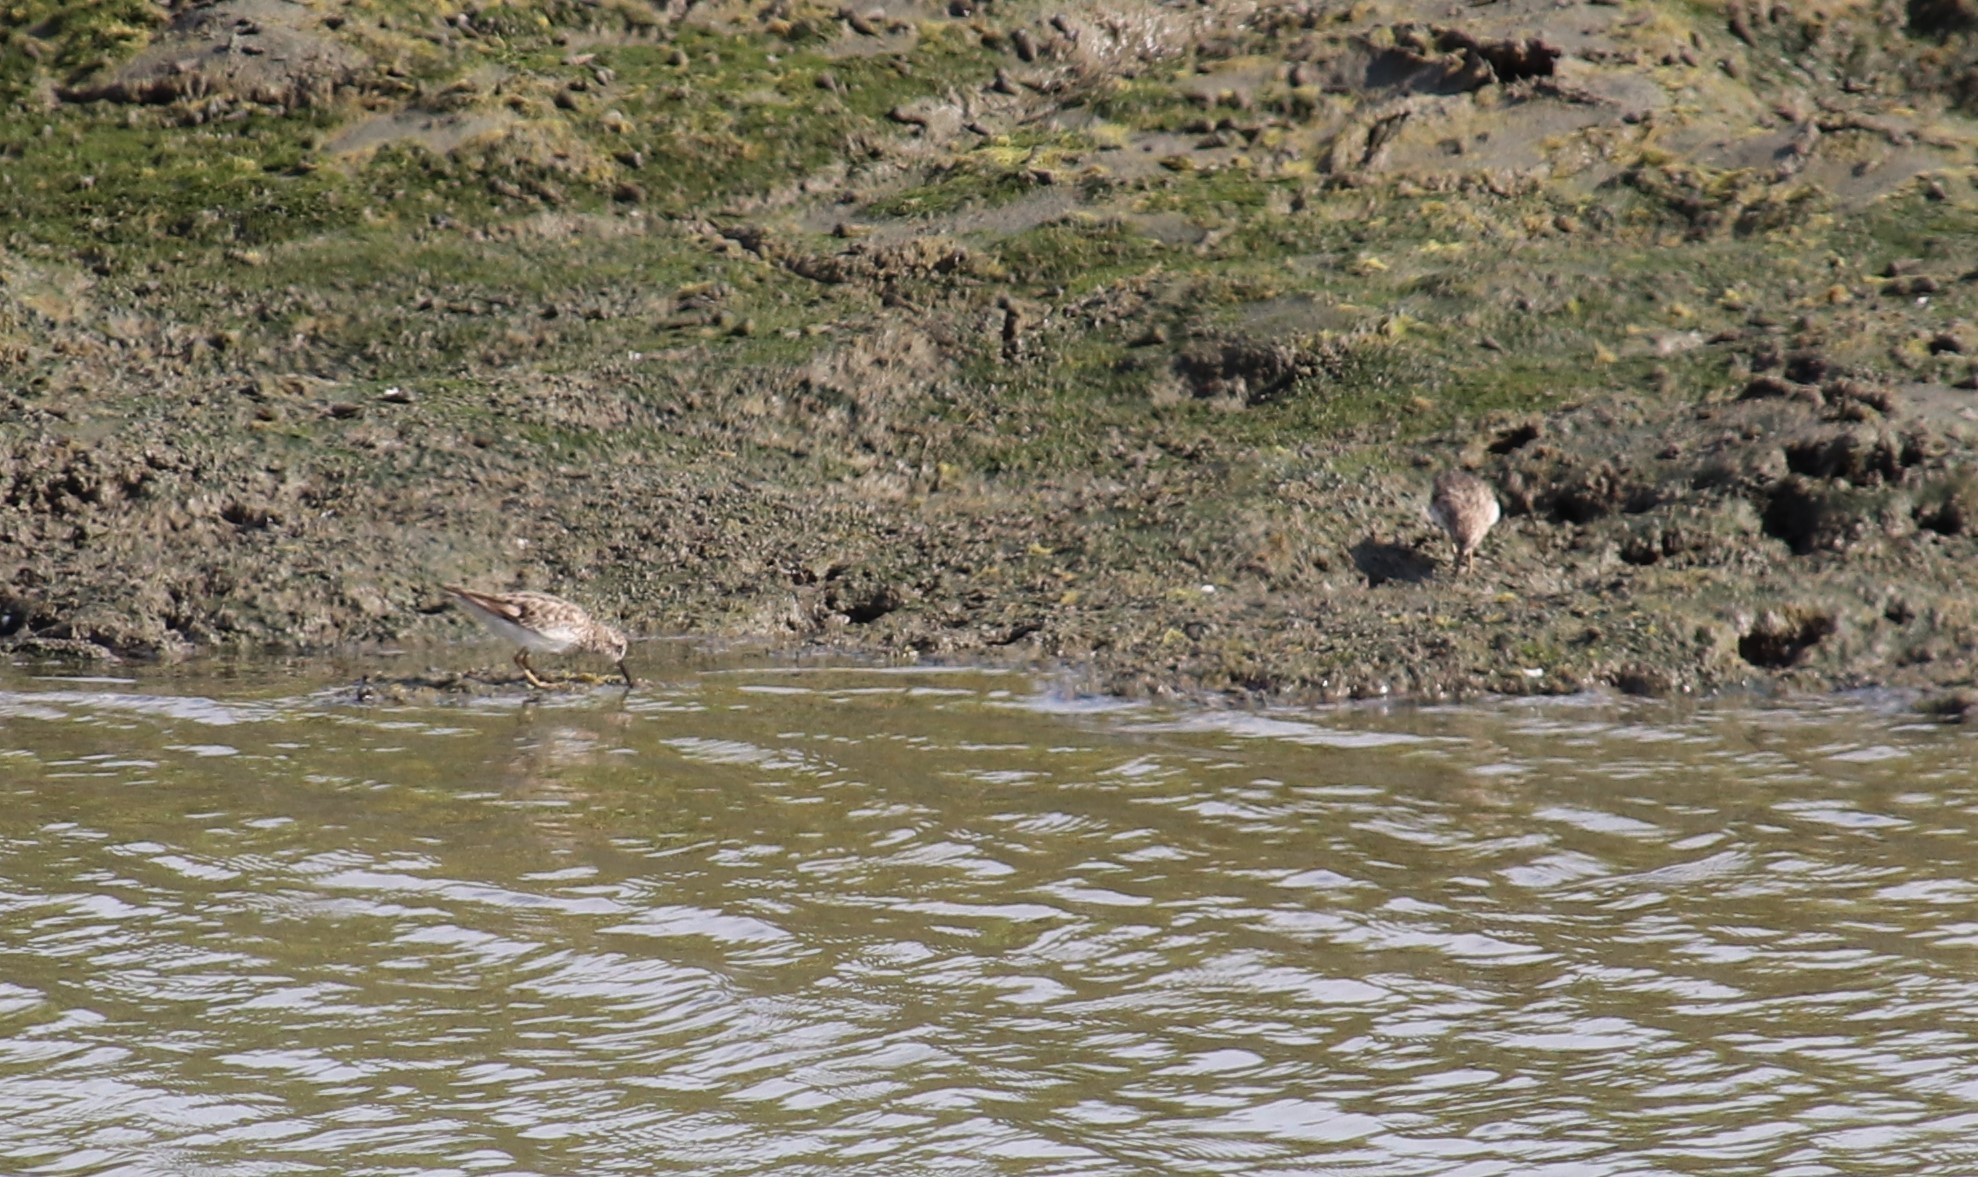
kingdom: Animalia
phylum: Chordata
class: Aves
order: Charadriiformes
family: Scolopacidae
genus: Calidris
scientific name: Calidris minutilla
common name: Least sandpiper
